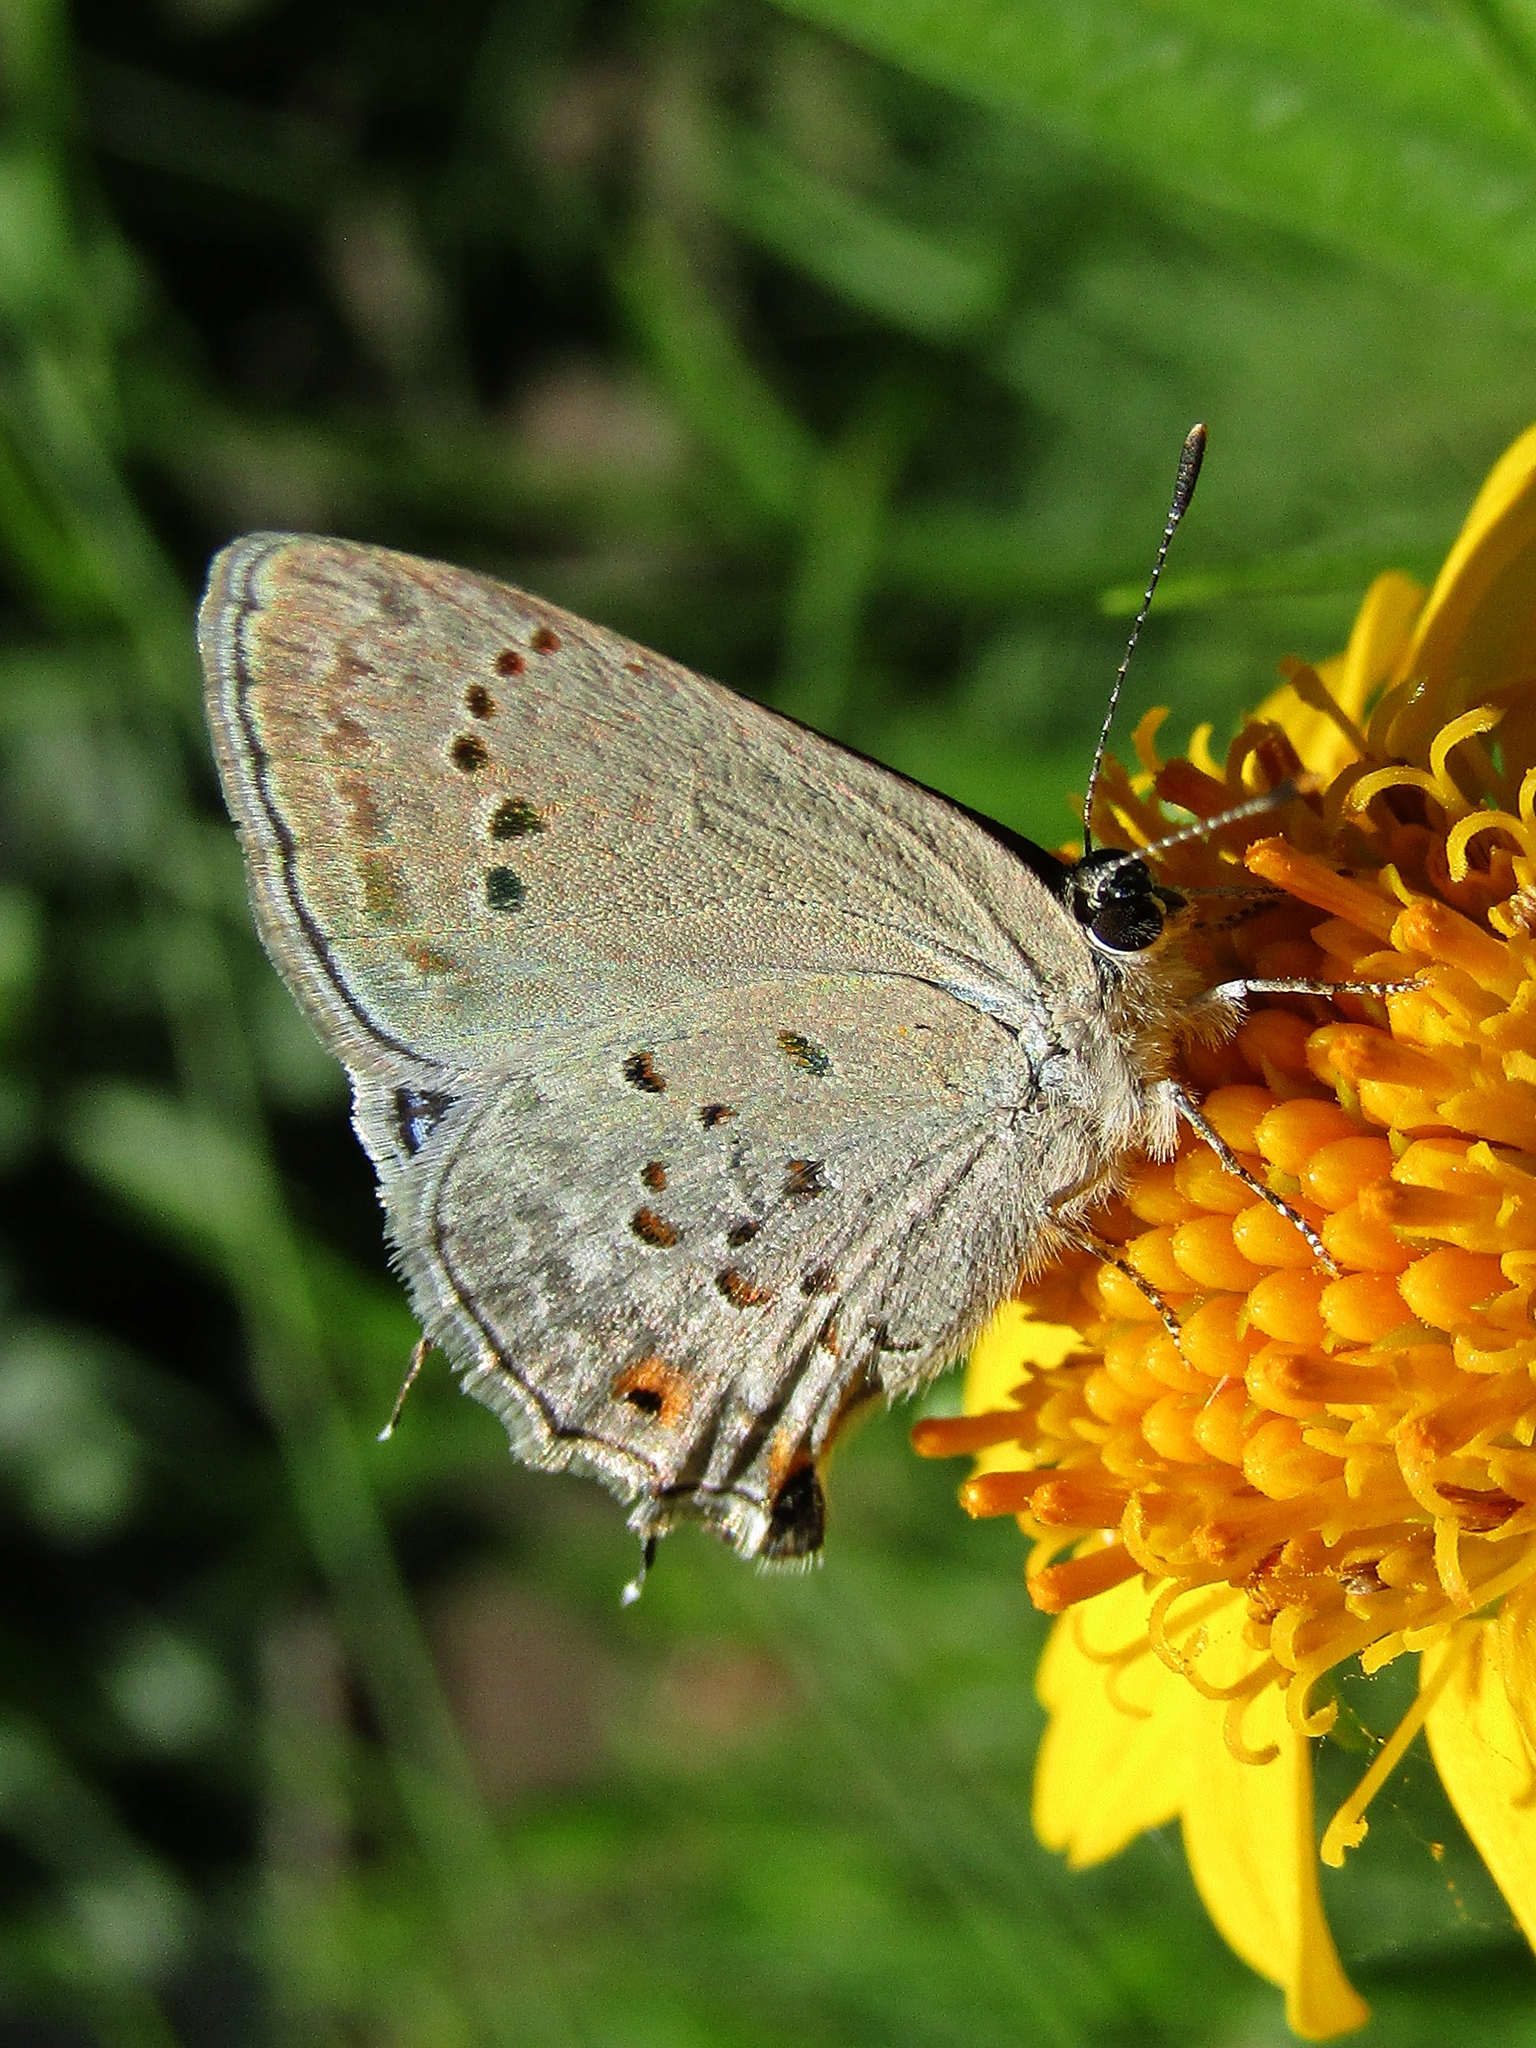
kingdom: Animalia
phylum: Arthropoda
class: Insecta
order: Lepidoptera
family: Lycaenidae
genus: Strymon
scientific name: Strymon eurytulus
